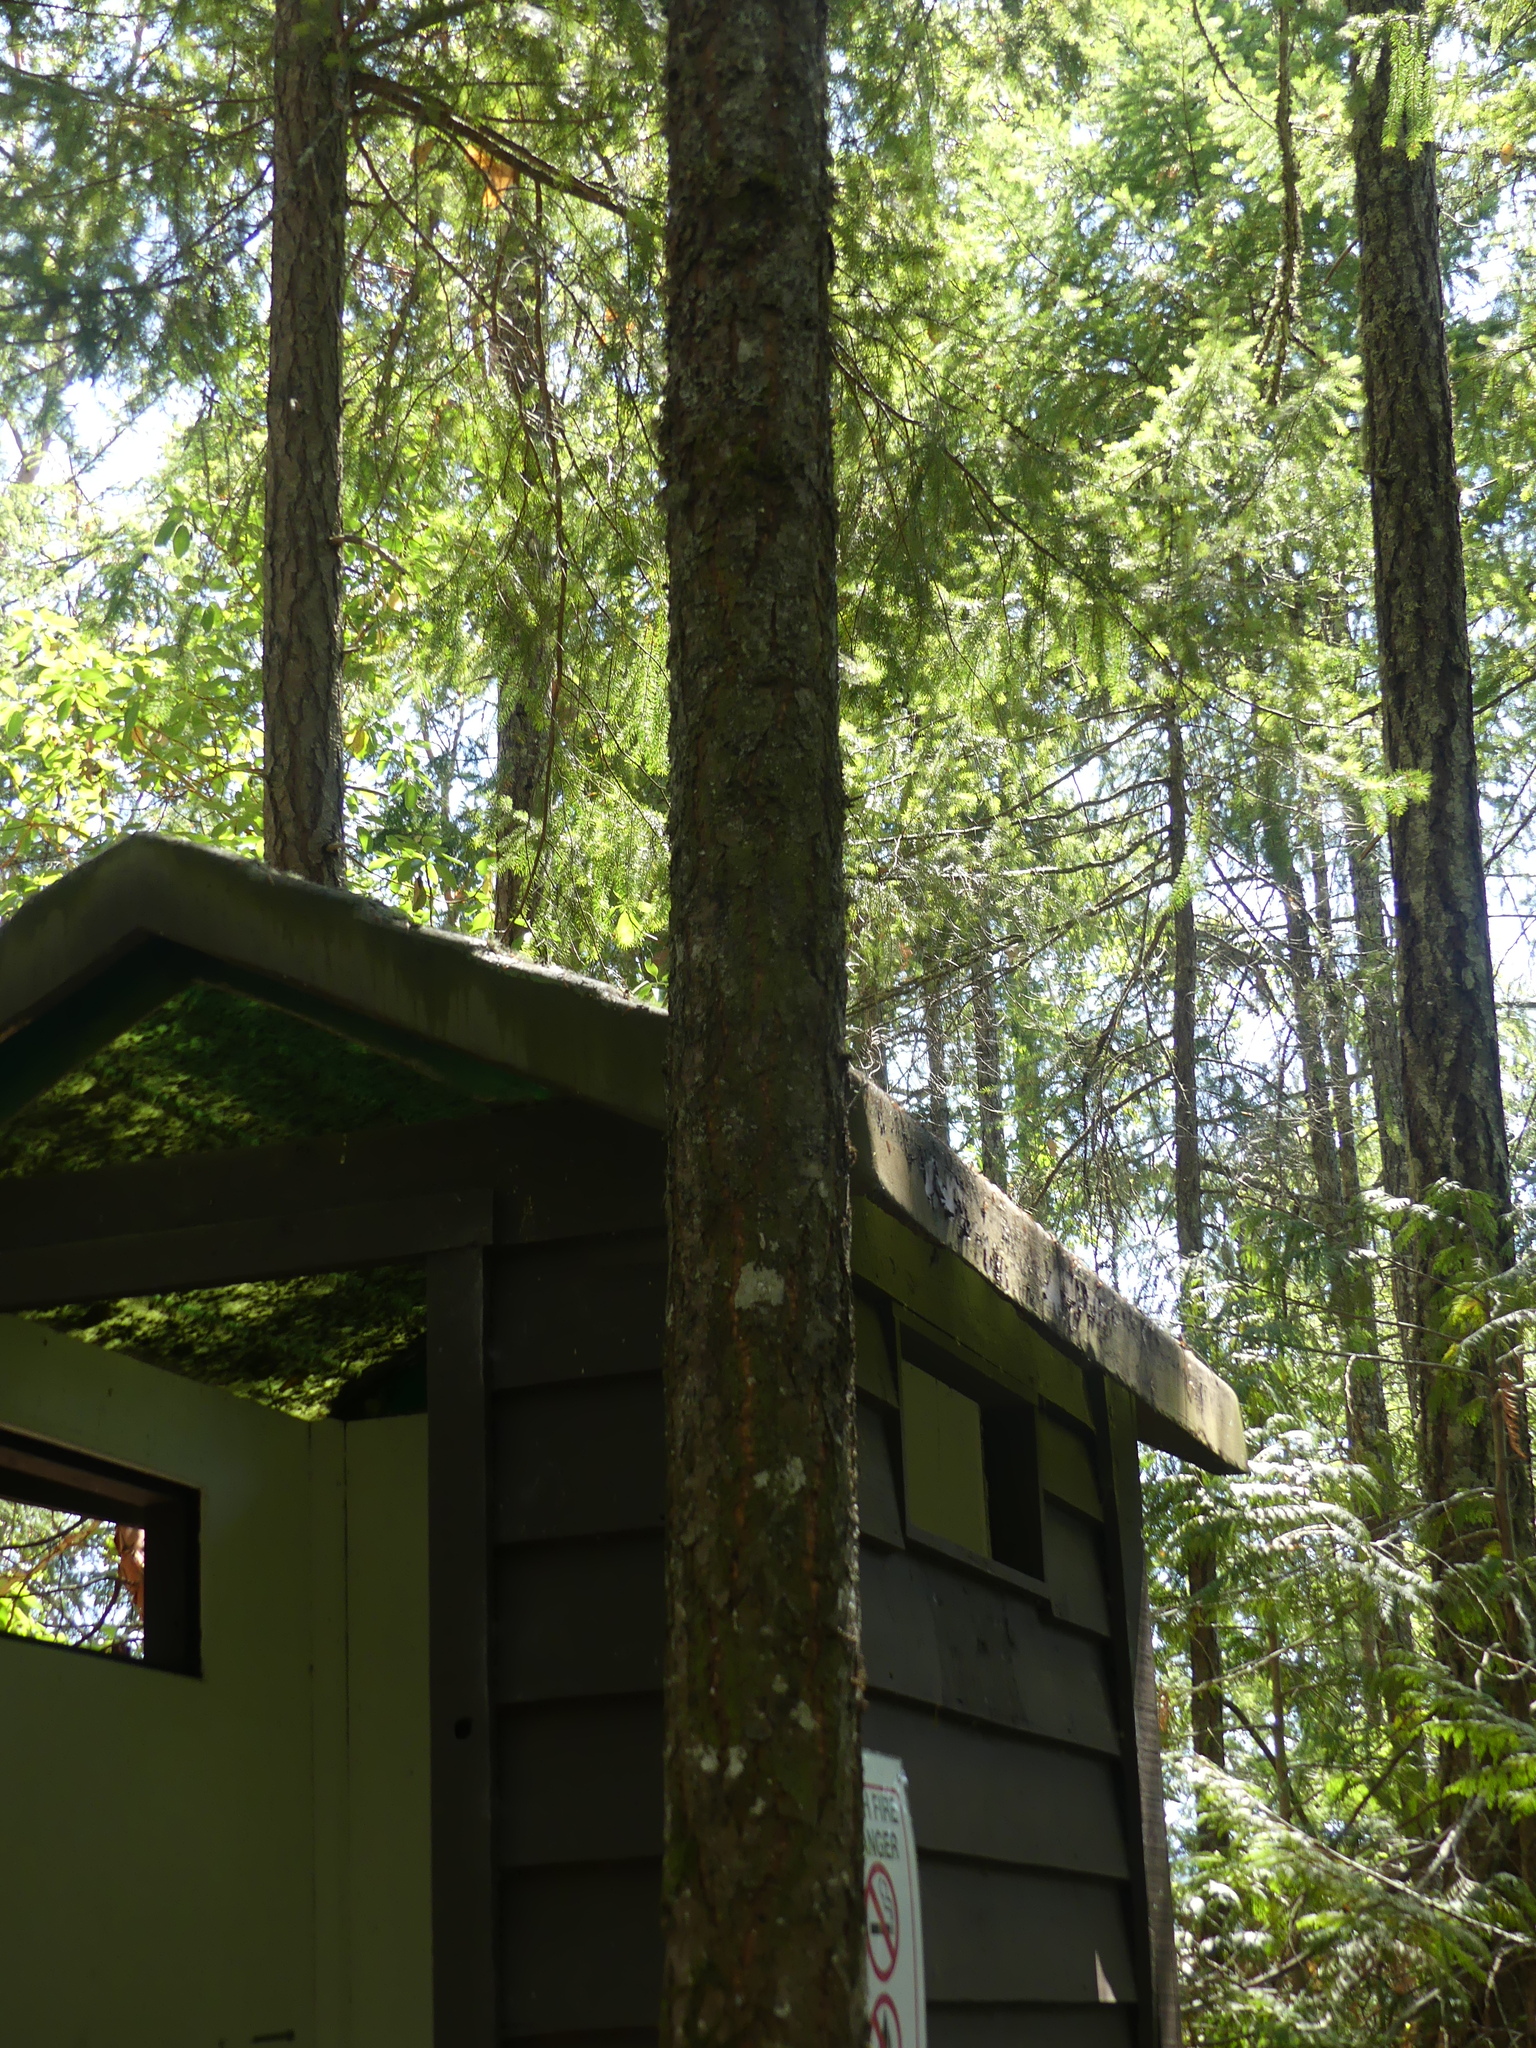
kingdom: Plantae
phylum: Tracheophyta
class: Pinopsida
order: Pinales
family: Pinaceae
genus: Pseudotsuga
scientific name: Pseudotsuga menziesii
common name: Douglas fir
